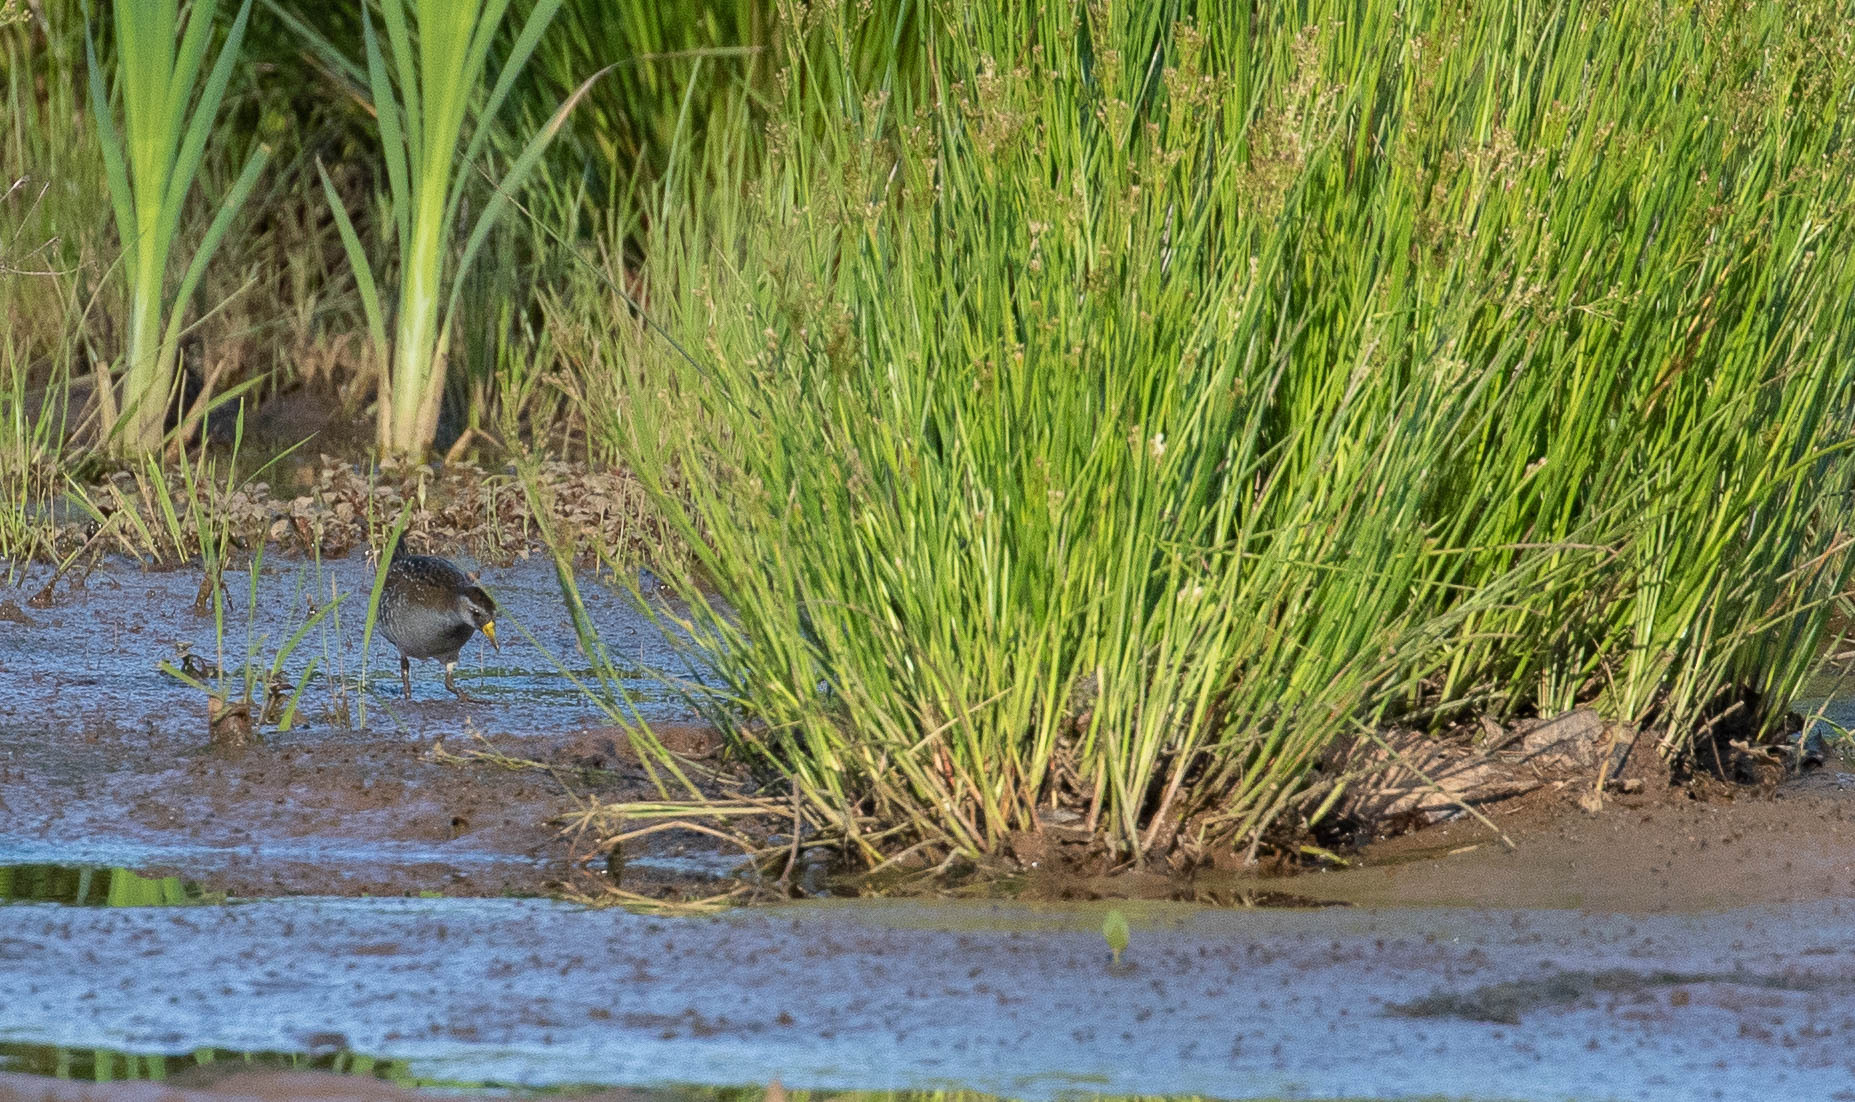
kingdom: Animalia
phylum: Chordata
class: Aves
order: Gruiformes
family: Rallidae
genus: Porzana
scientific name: Porzana carolina
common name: Sora
